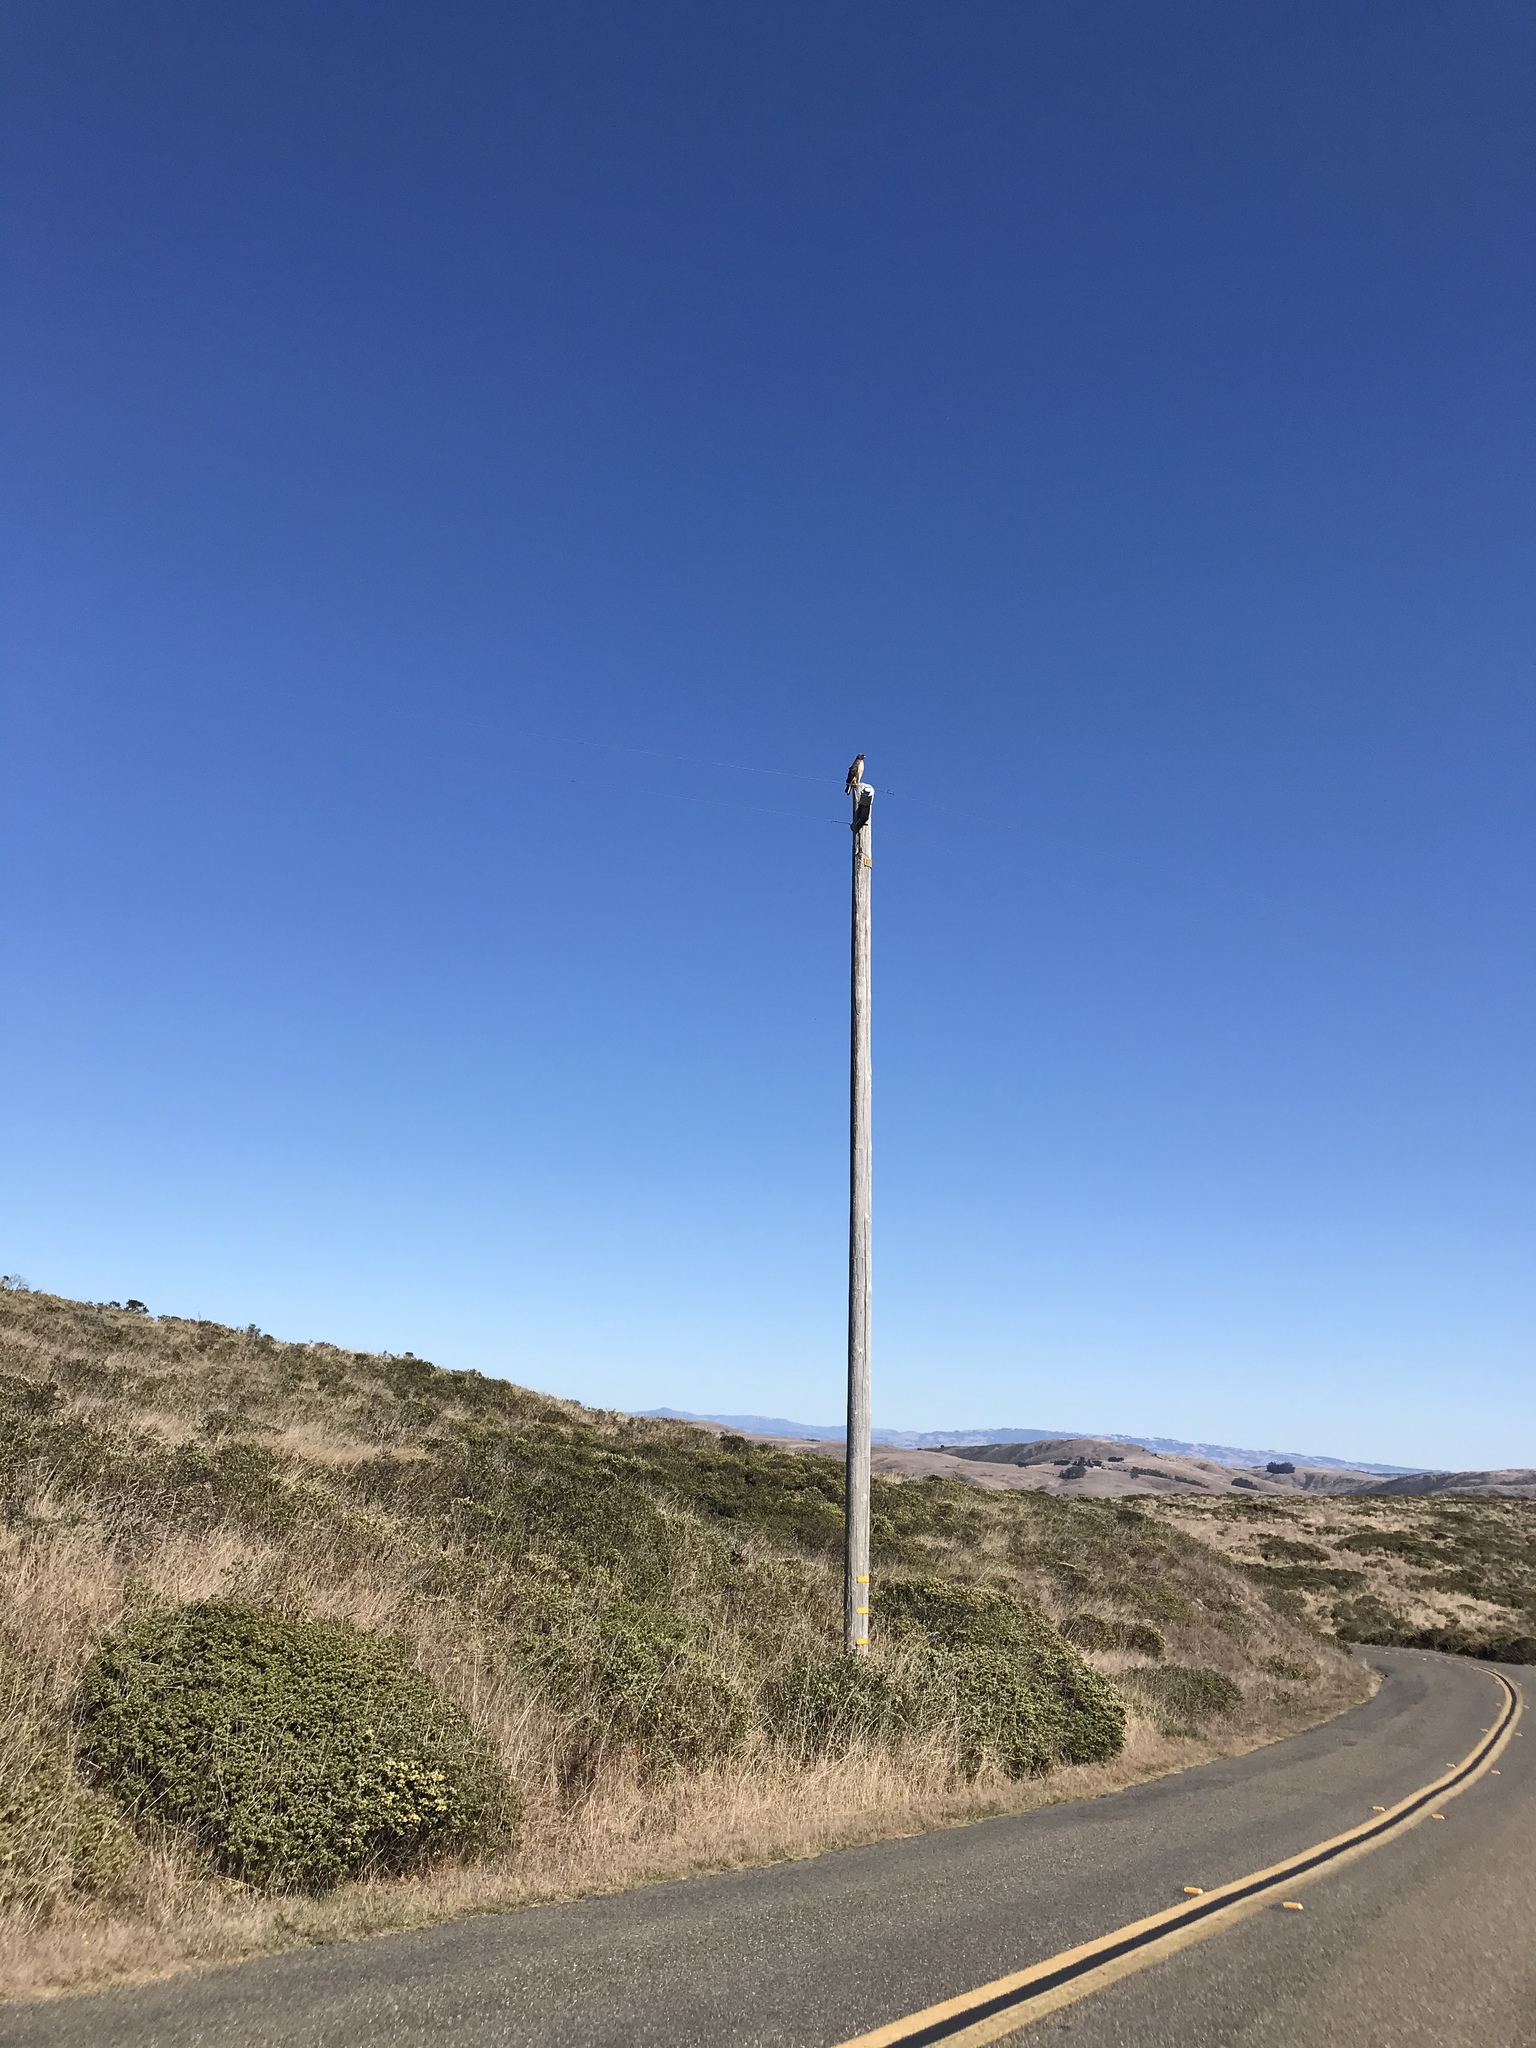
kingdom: Animalia
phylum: Chordata
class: Aves
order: Accipitriformes
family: Accipitridae
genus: Buteo
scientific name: Buteo jamaicensis
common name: Red-tailed hawk
